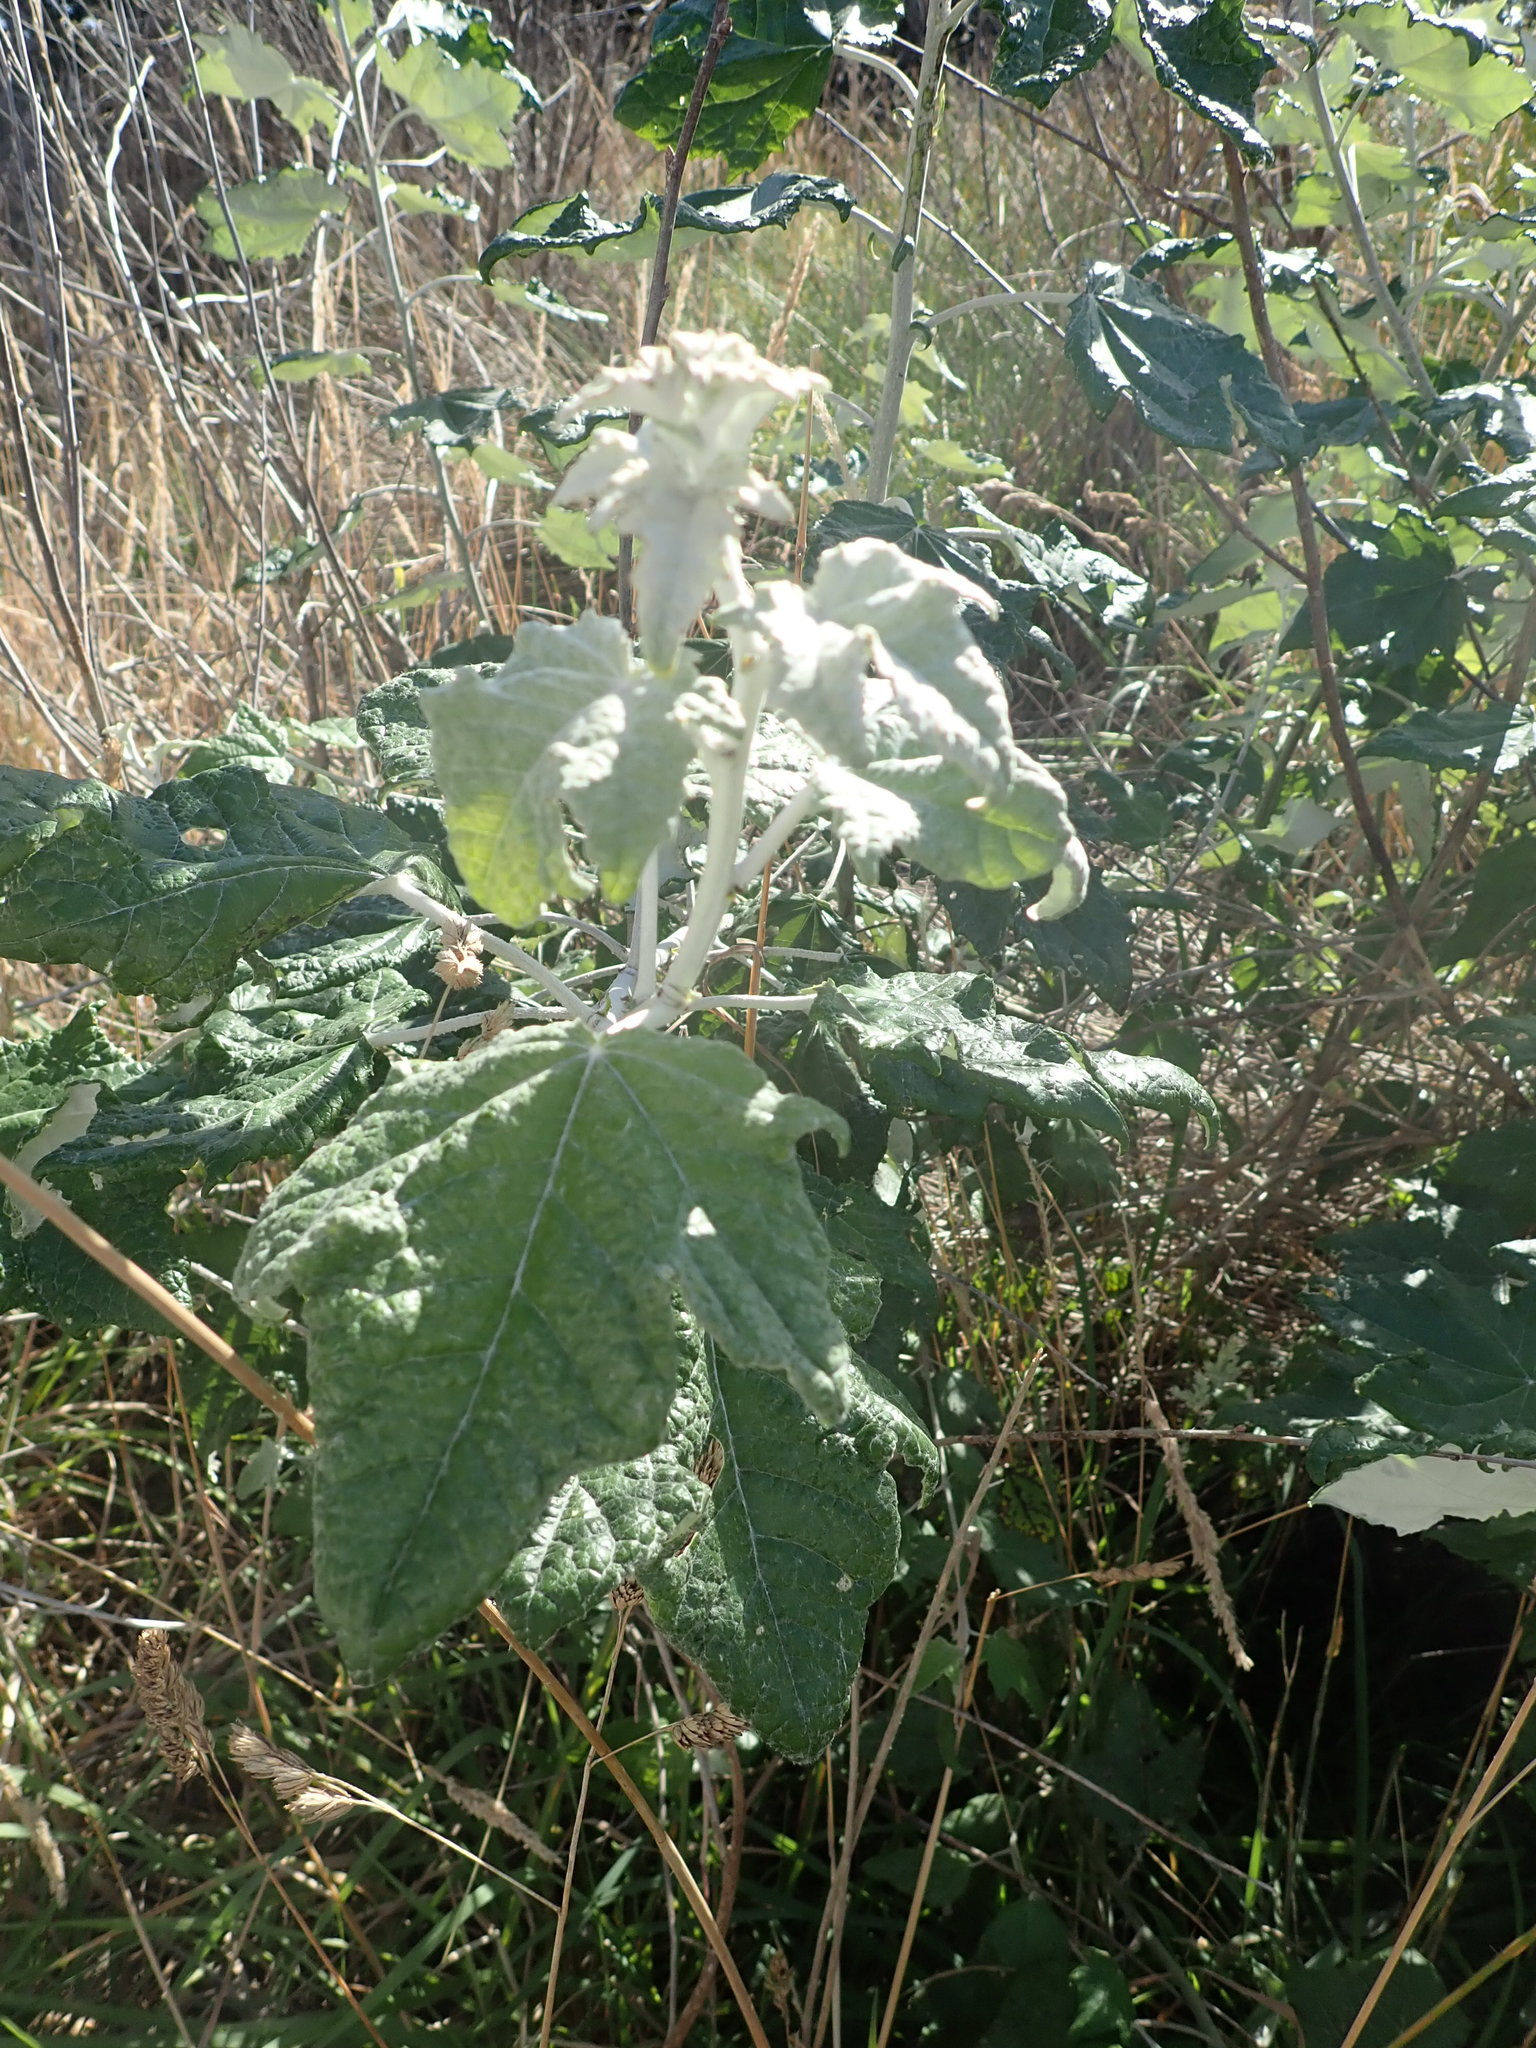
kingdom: Plantae
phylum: Tracheophyta
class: Magnoliopsida
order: Malpighiales
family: Salicaceae
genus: Populus
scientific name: Populus alba
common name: White poplar
